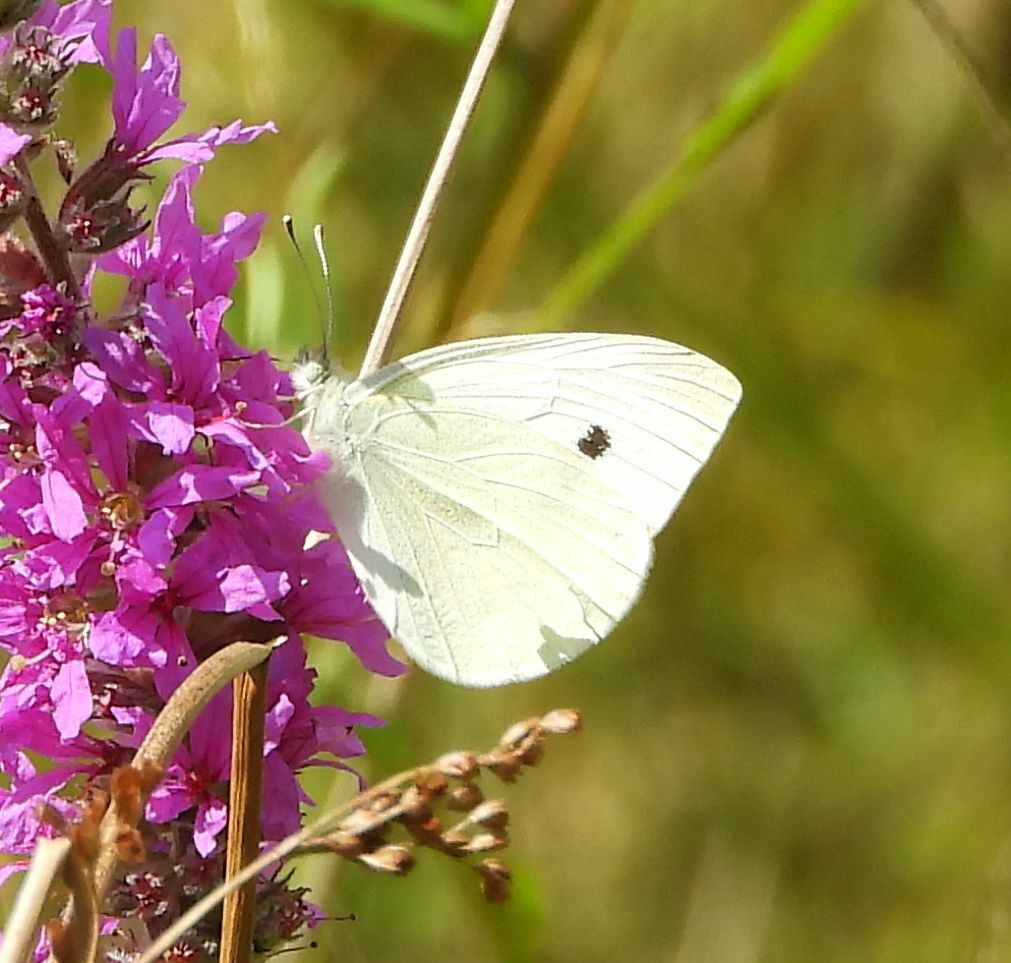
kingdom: Animalia
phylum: Arthropoda
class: Insecta
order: Lepidoptera
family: Pieridae
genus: Pieris
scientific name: Pieris rapae
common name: Small white
